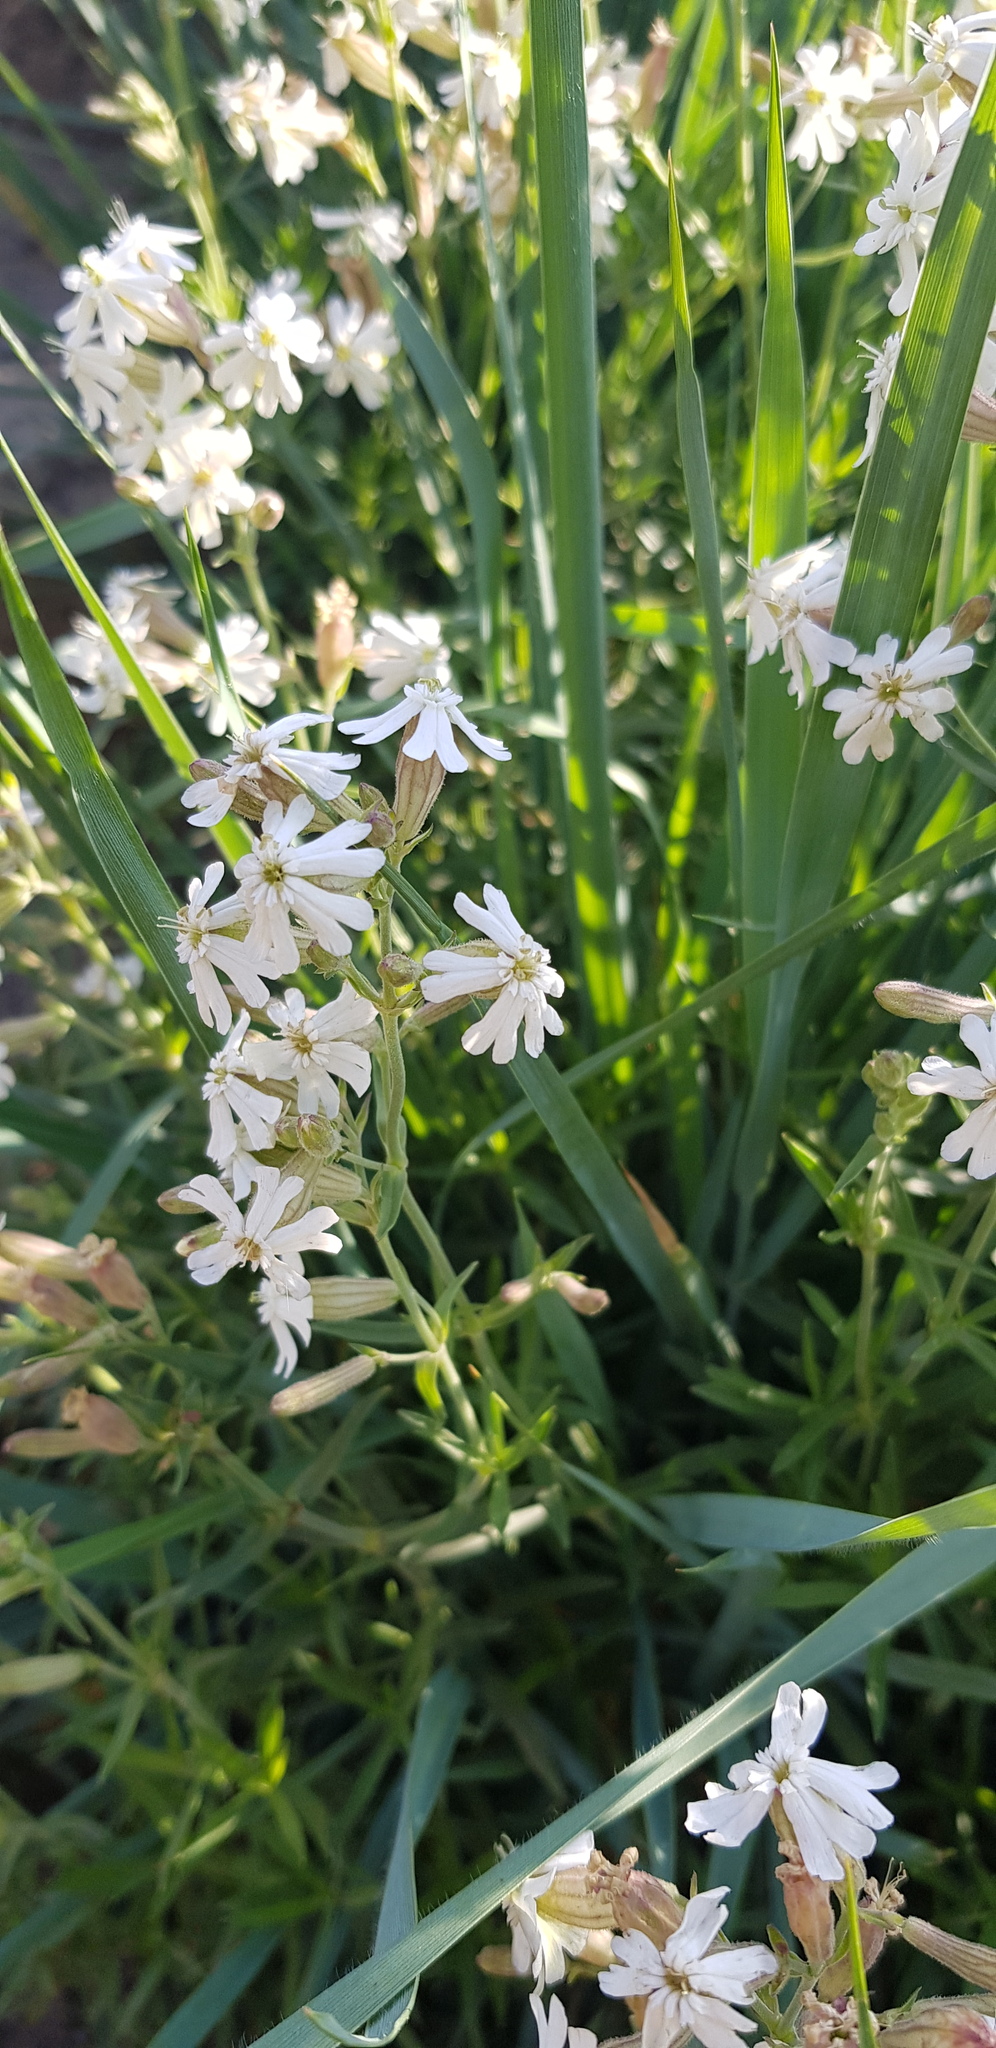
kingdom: Plantae
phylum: Tracheophyta
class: Magnoliopsida
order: Caryophyllales
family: Caryophyllaceae
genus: Silene
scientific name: Silene repens
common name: Pink campion
